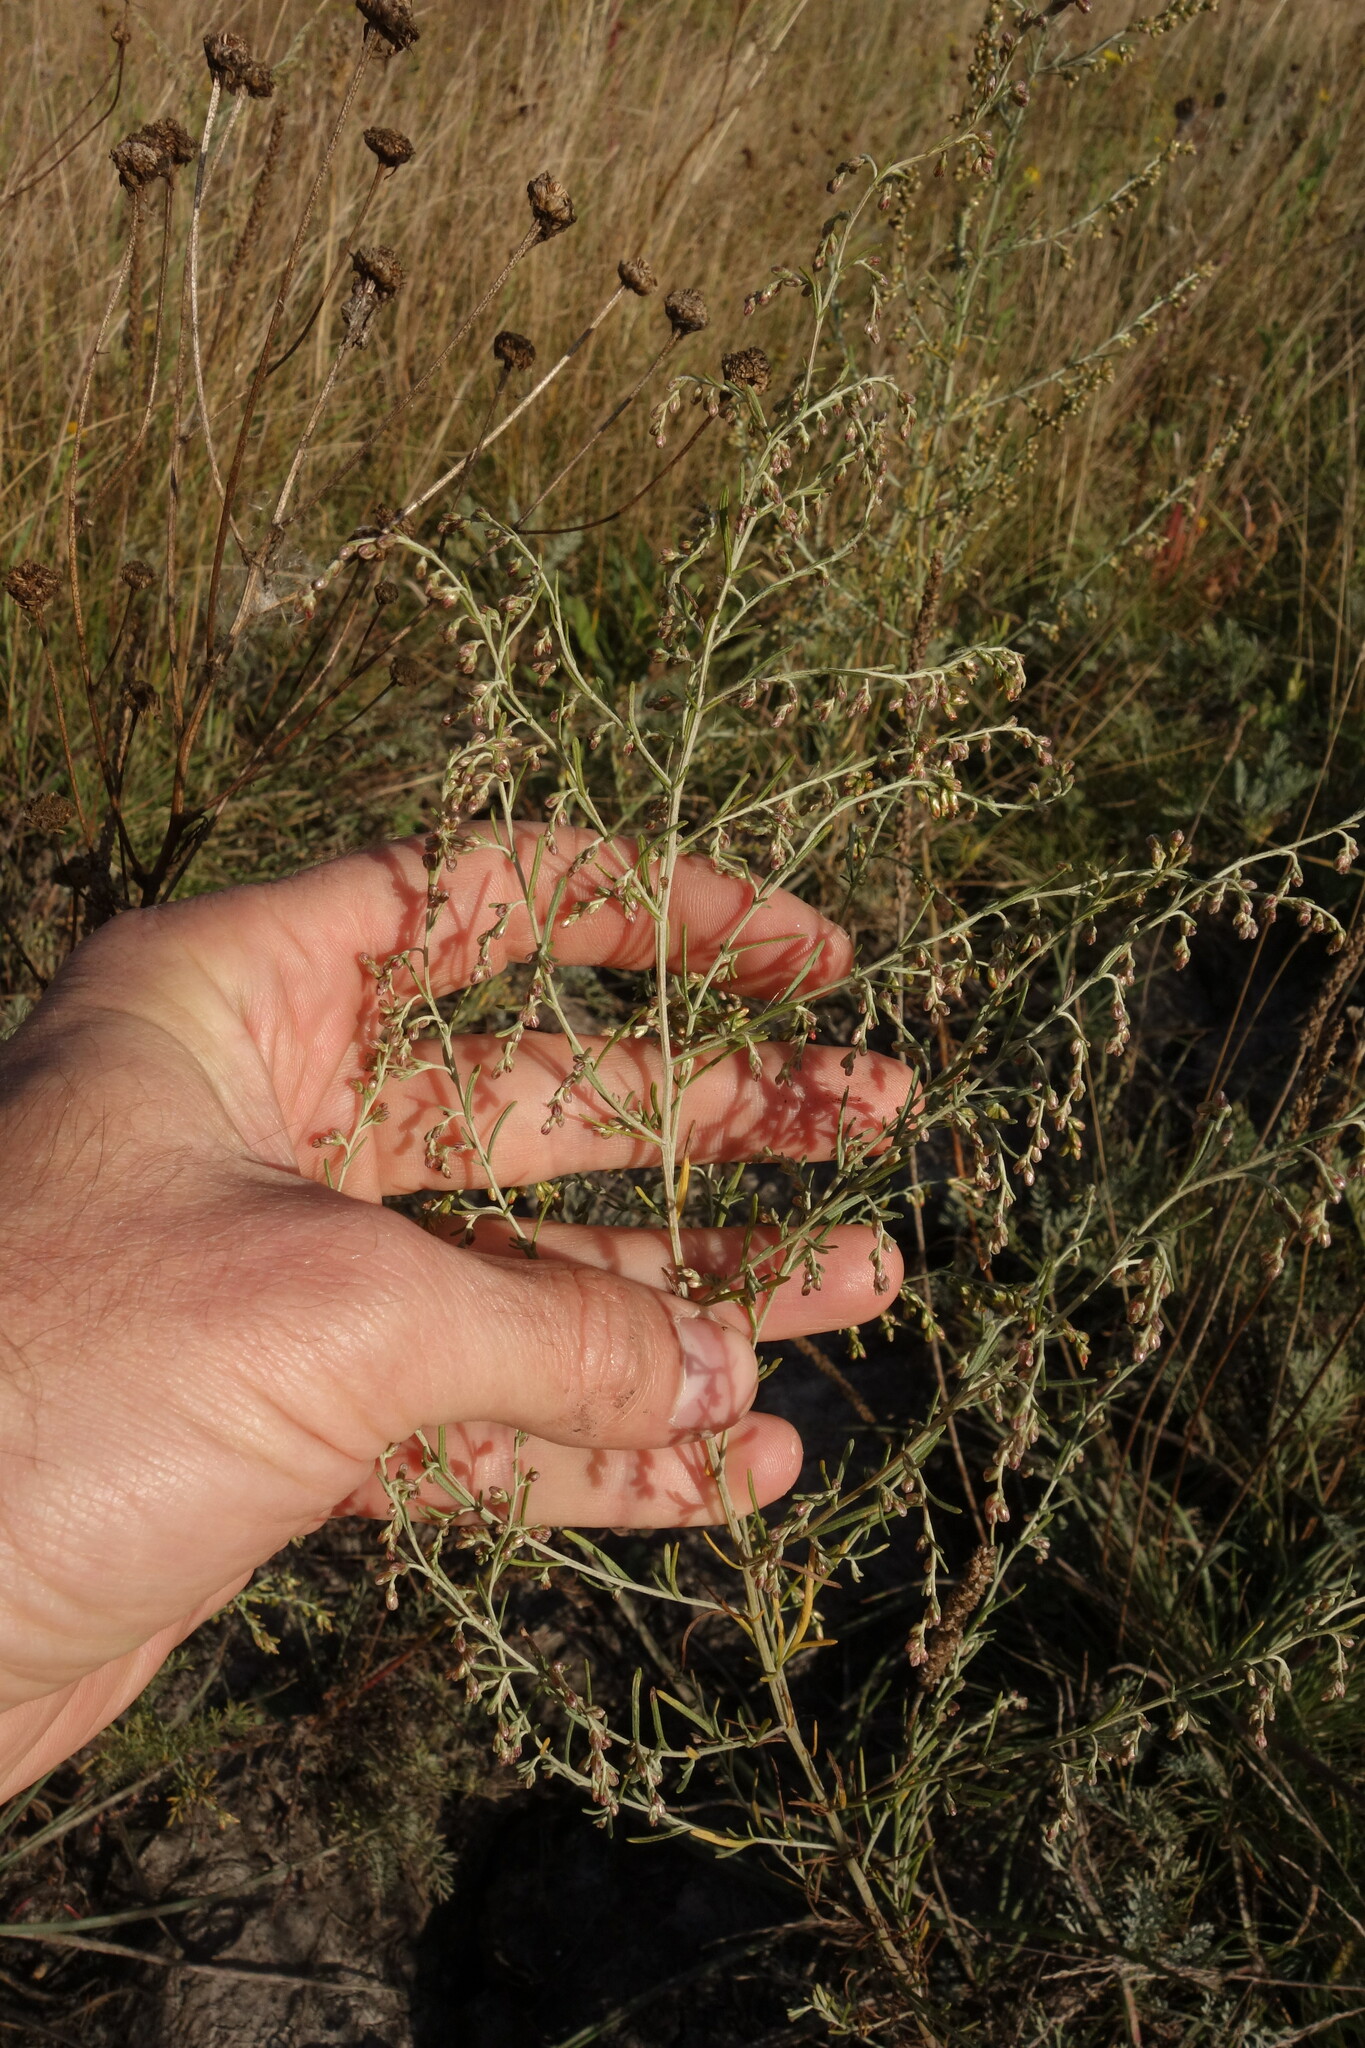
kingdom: Plantae
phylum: Tracheophyta
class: Magnoliopsida
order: Asterales
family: Asteraceae
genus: Artemisia
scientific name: Artemisia santonicum
